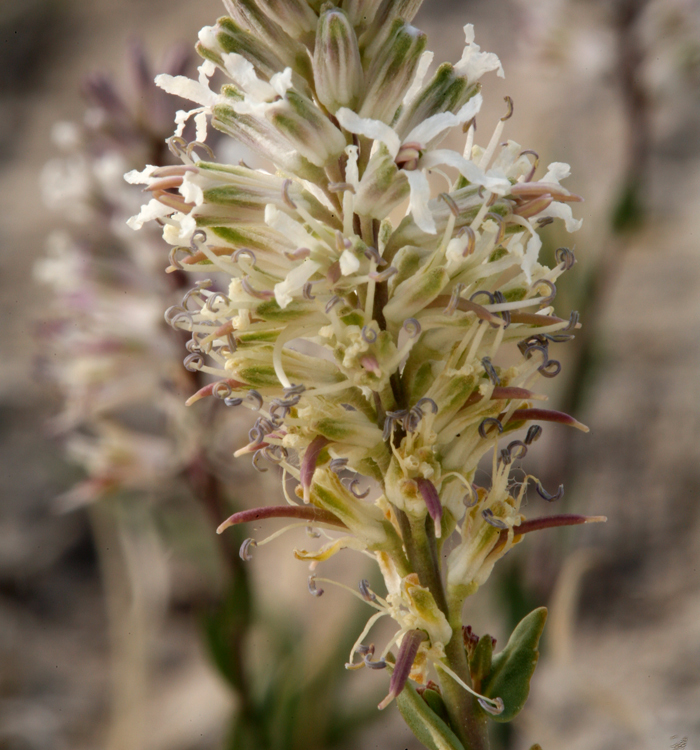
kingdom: Plantae
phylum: Tracheophyta
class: Magnoliopsida
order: Brassicales
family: Brassicaceae
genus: Thelypodium
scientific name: Thelypodium crispum
